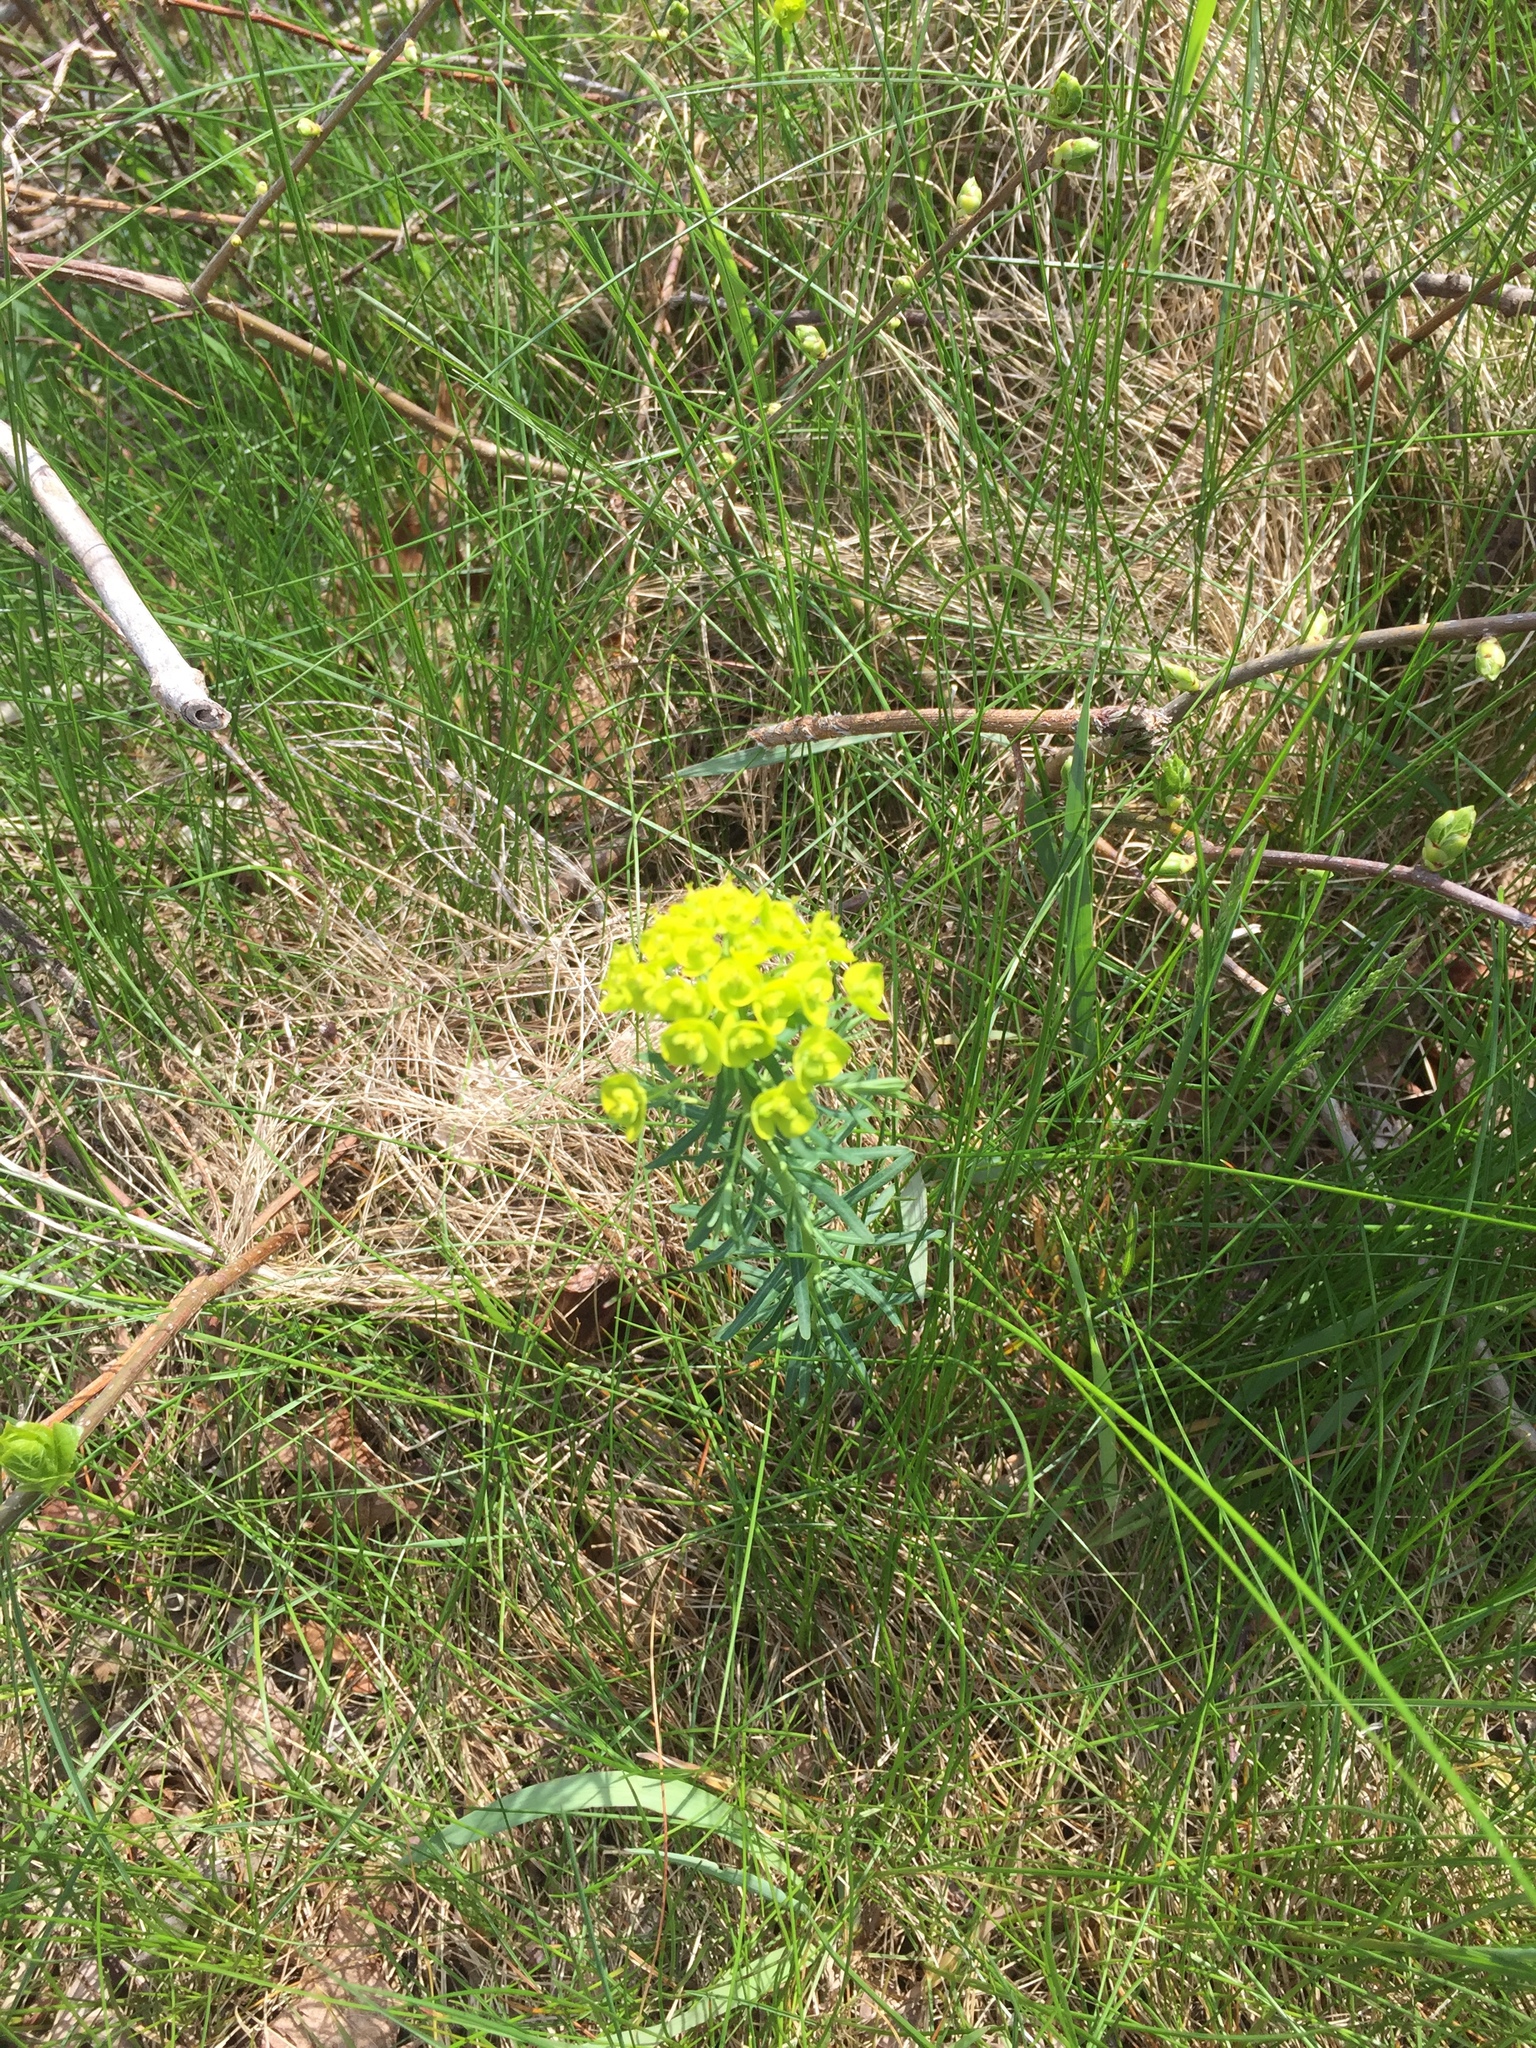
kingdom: Plantae
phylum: Tracheophyta
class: Magnoliopsida
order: Malpighiales
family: Euphorbiaceae
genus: Euphorbia
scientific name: Euphorbia cyparissias
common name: Cypress spurge
